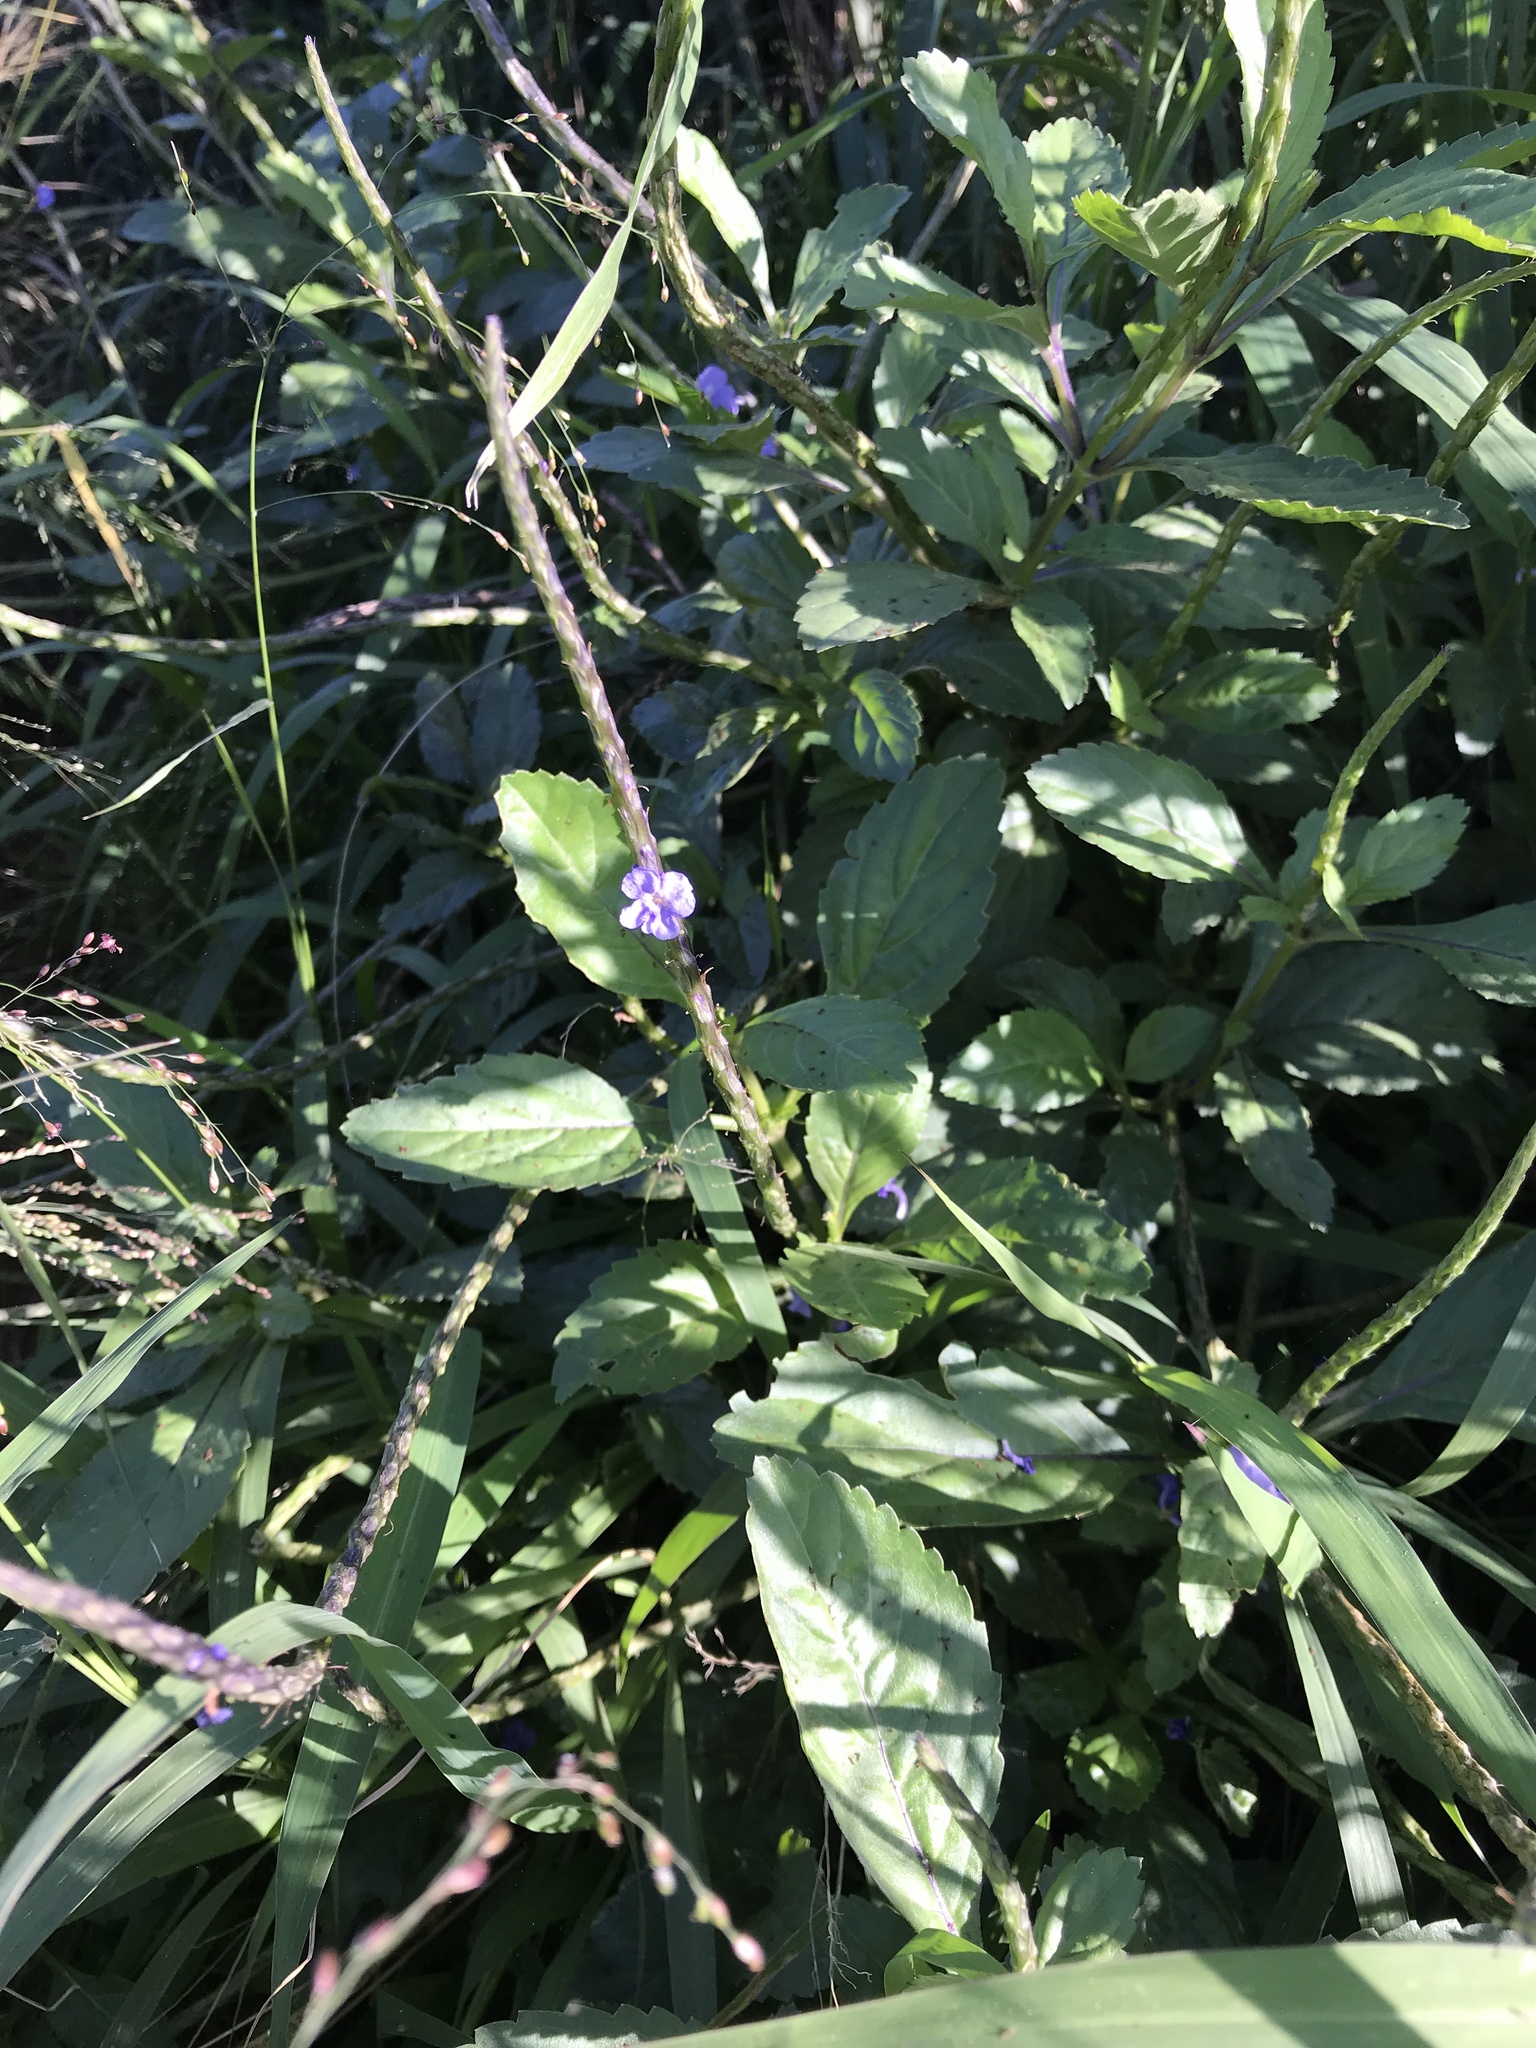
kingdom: Plantae
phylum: Tracheophyta
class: Magnoliopsida
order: Lamiales
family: Verbenaceae
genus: Stachytarpheta
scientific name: Stachytarpheta jamaicensis
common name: Light-blue snakeweed
